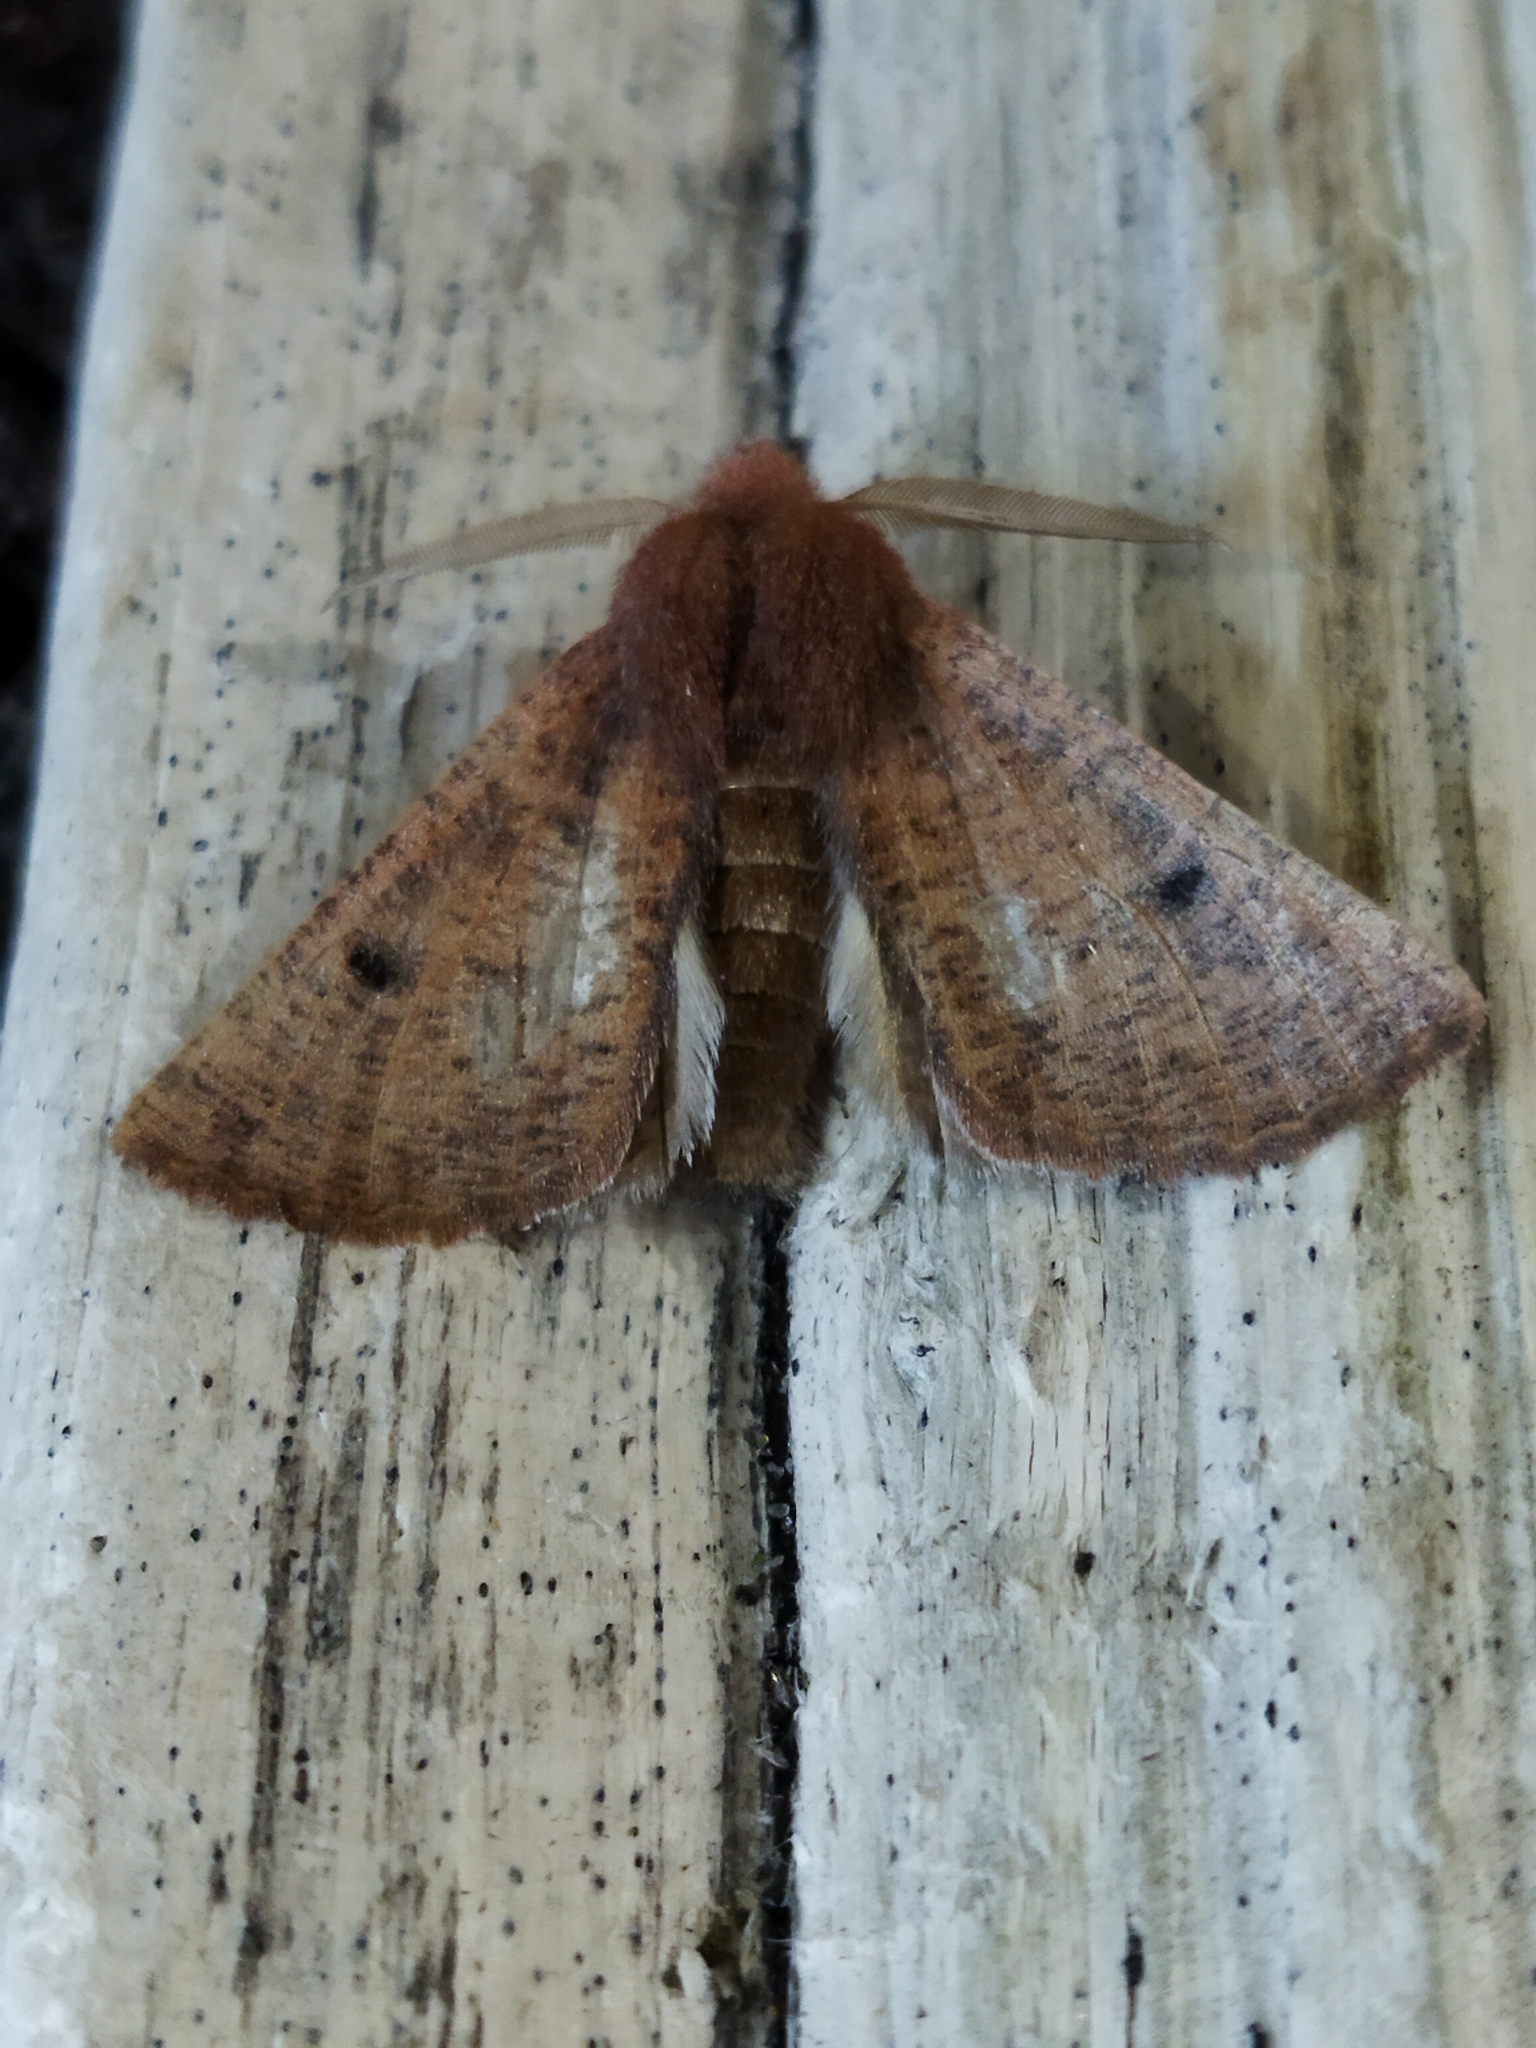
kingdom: Animalia
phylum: Arthropoda
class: Insecta
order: Lepidoptera
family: Geometridae
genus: Dasycorsa
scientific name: Dasycorsa modesta
